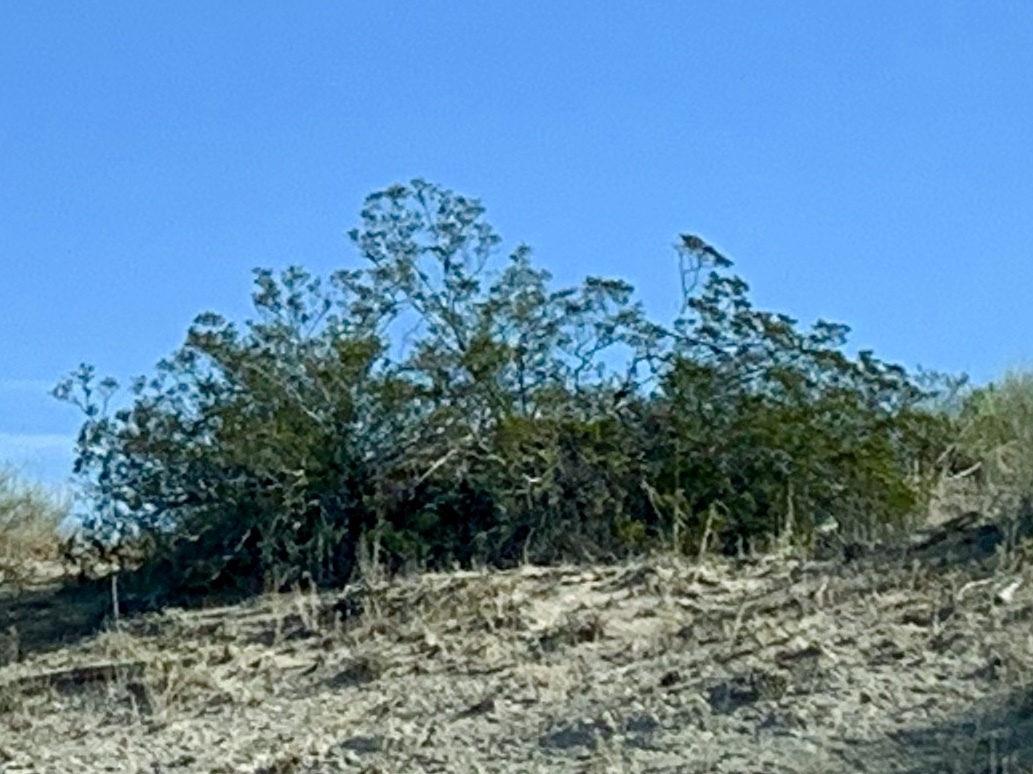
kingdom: Plantae
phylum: Tracheophyta
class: Magnoliopsida
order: Zygophyllales
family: Zygophyllaceae
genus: Larrea
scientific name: Larrea tridentata
